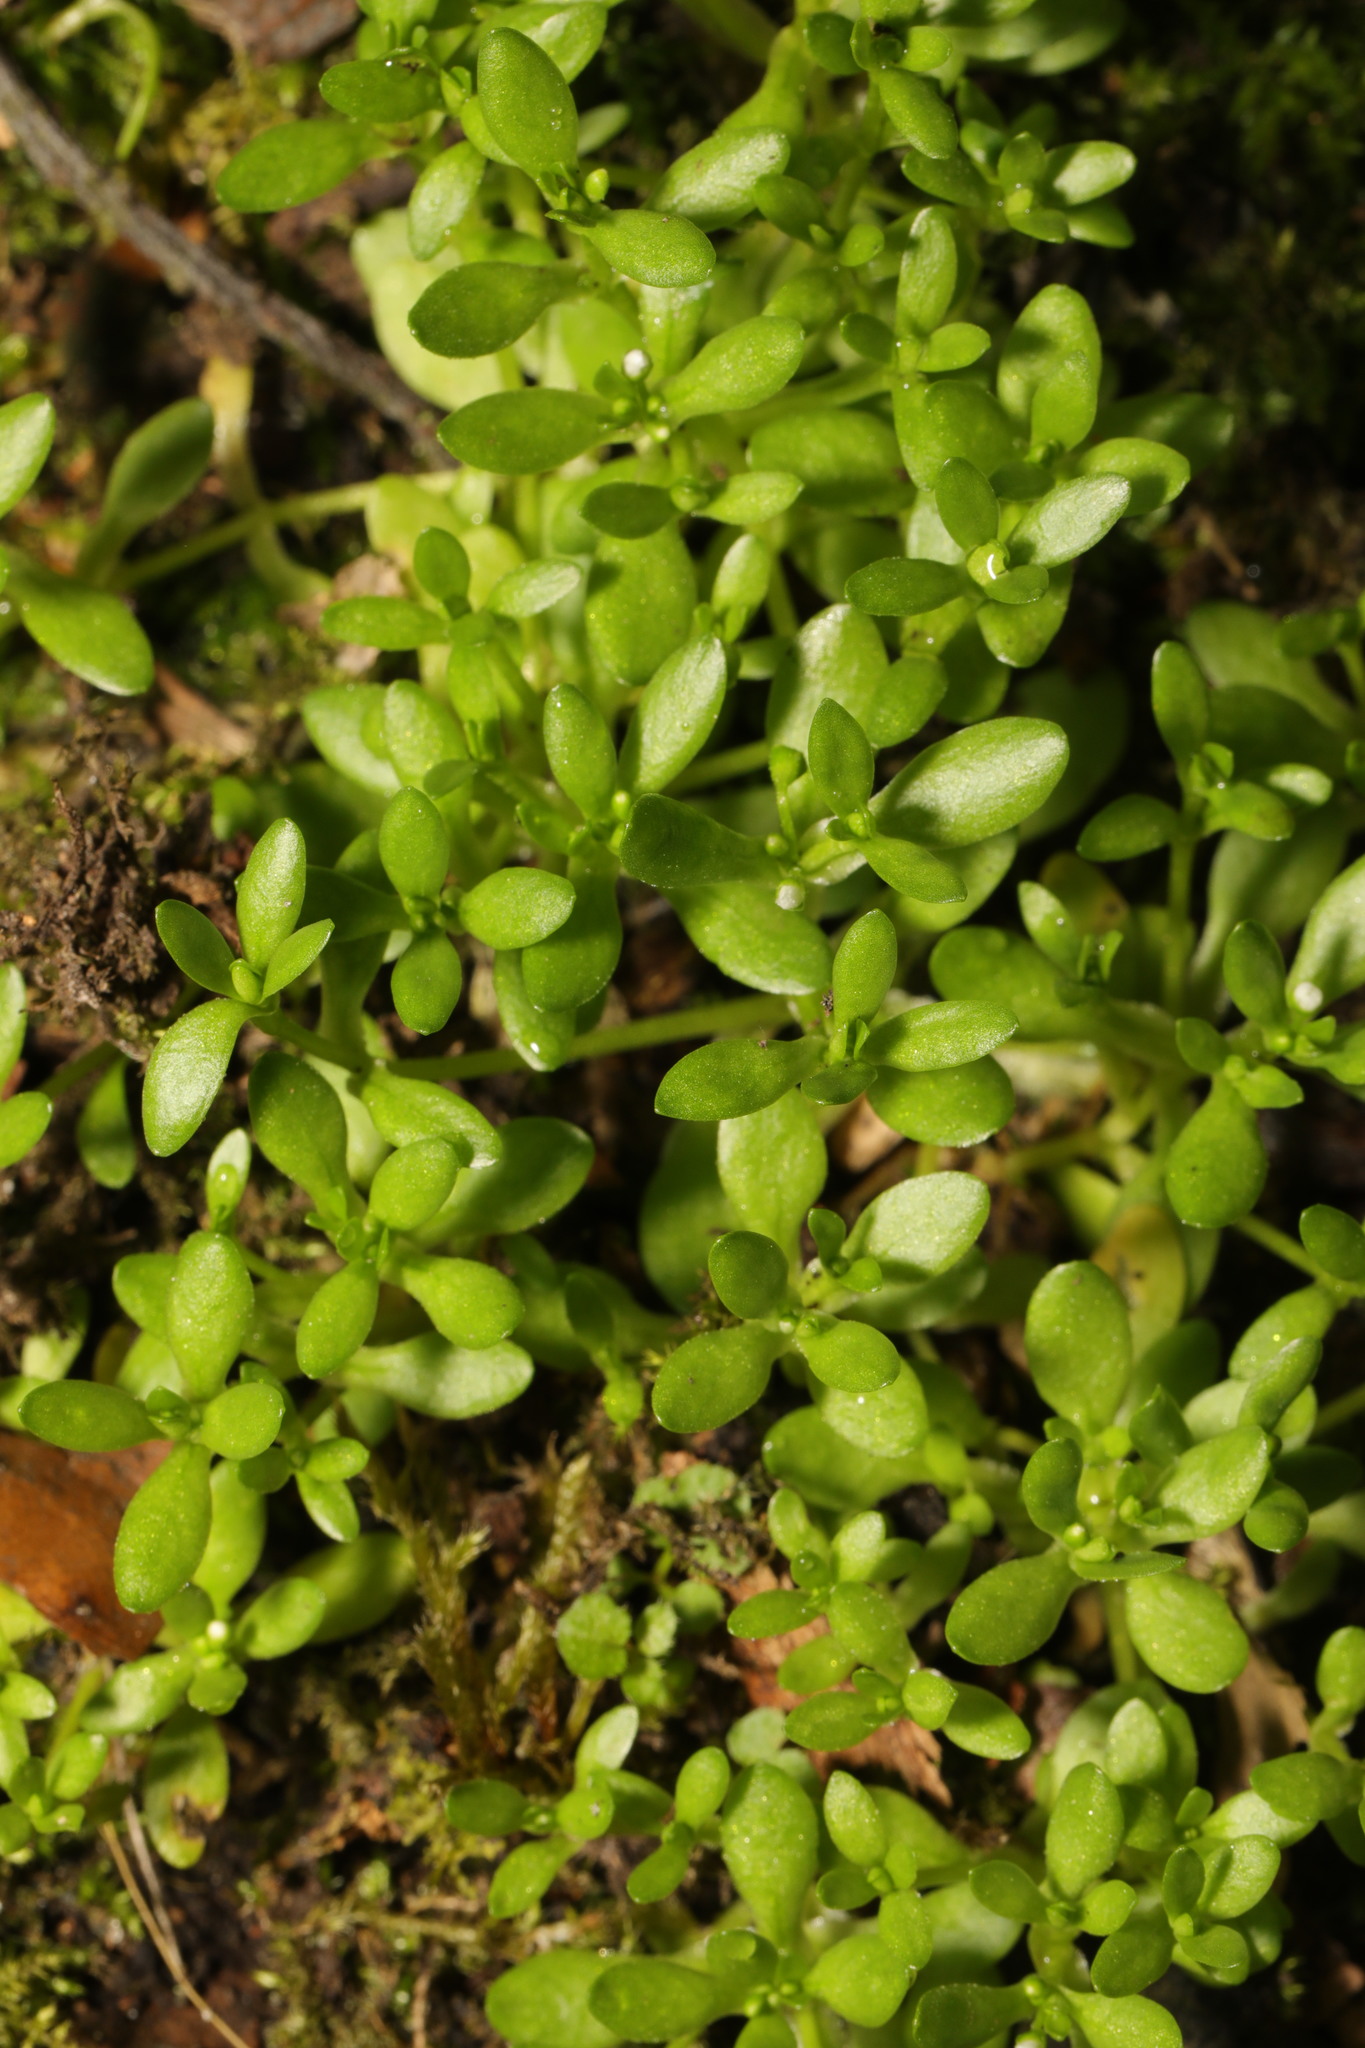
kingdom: Plantae
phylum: Tracheophyta
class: Magnoliopsida
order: Caryophyllales
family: Montiaceae
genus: Montia
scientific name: Montia fontana
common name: Blinks
